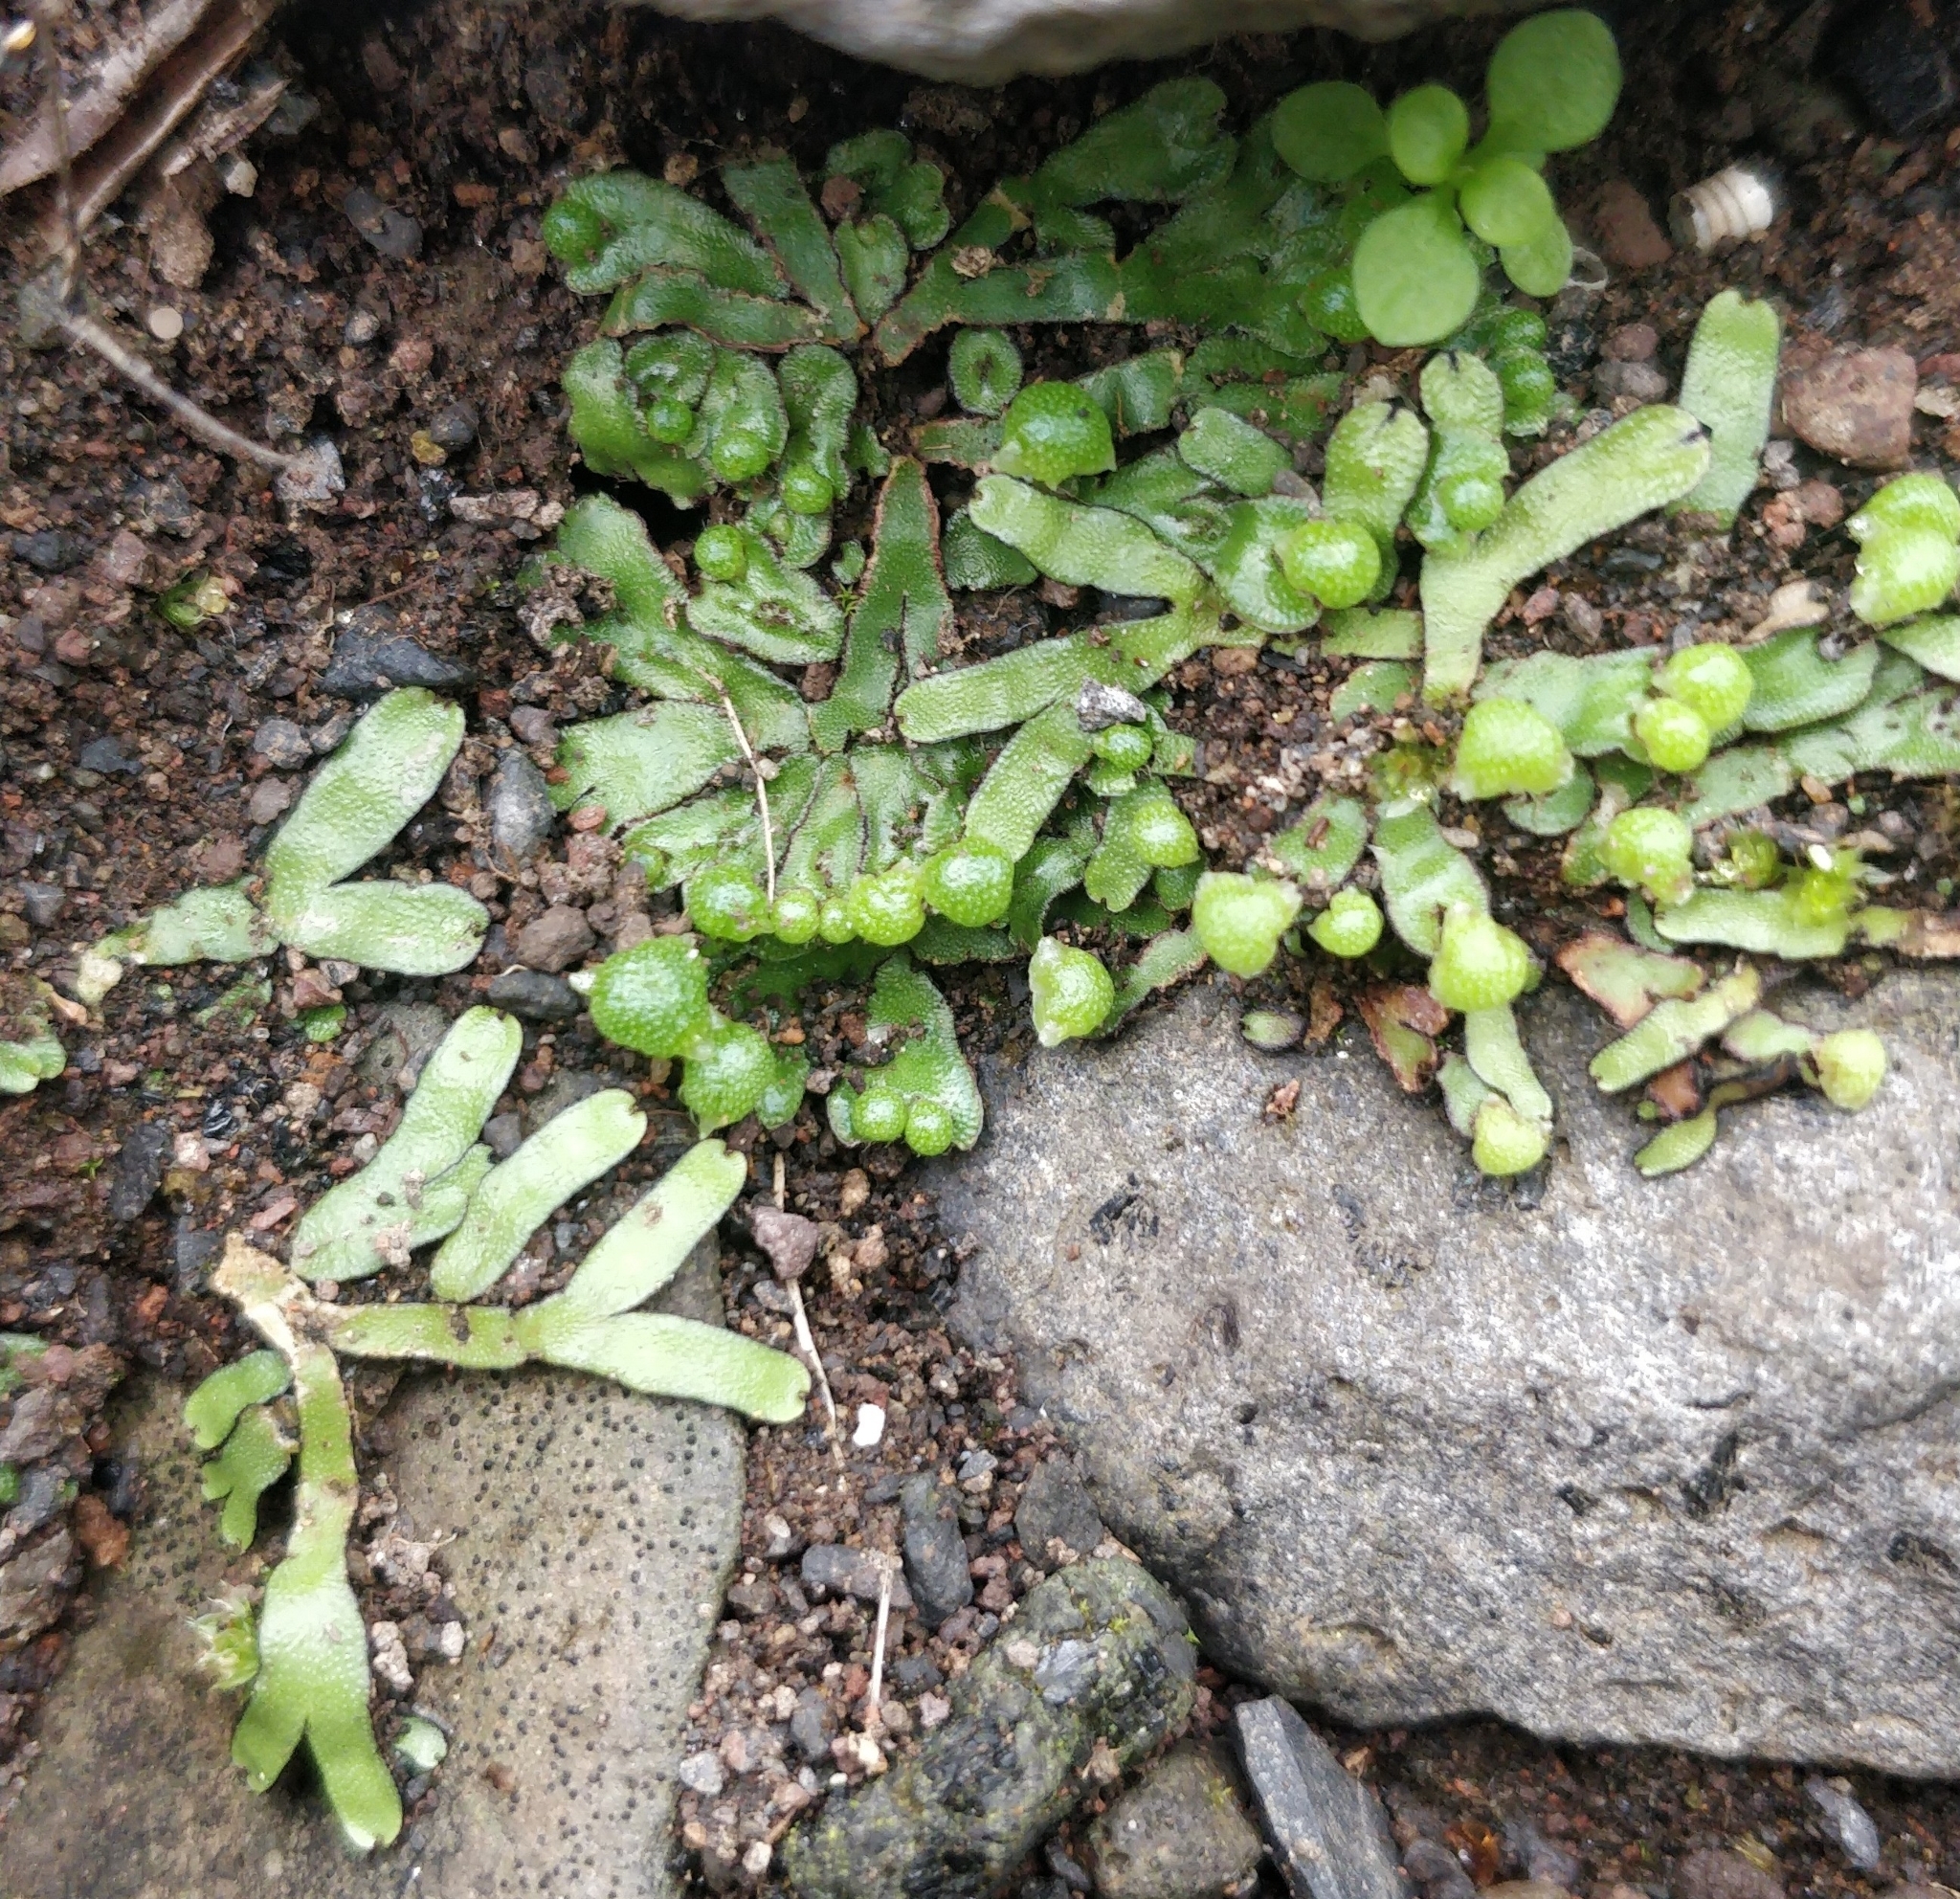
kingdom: Plantae
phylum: Marchantiophyta
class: Marchantiopsida
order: Marchantiales
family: Aytoniaceae
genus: Mannia
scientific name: Mannia androgyna
